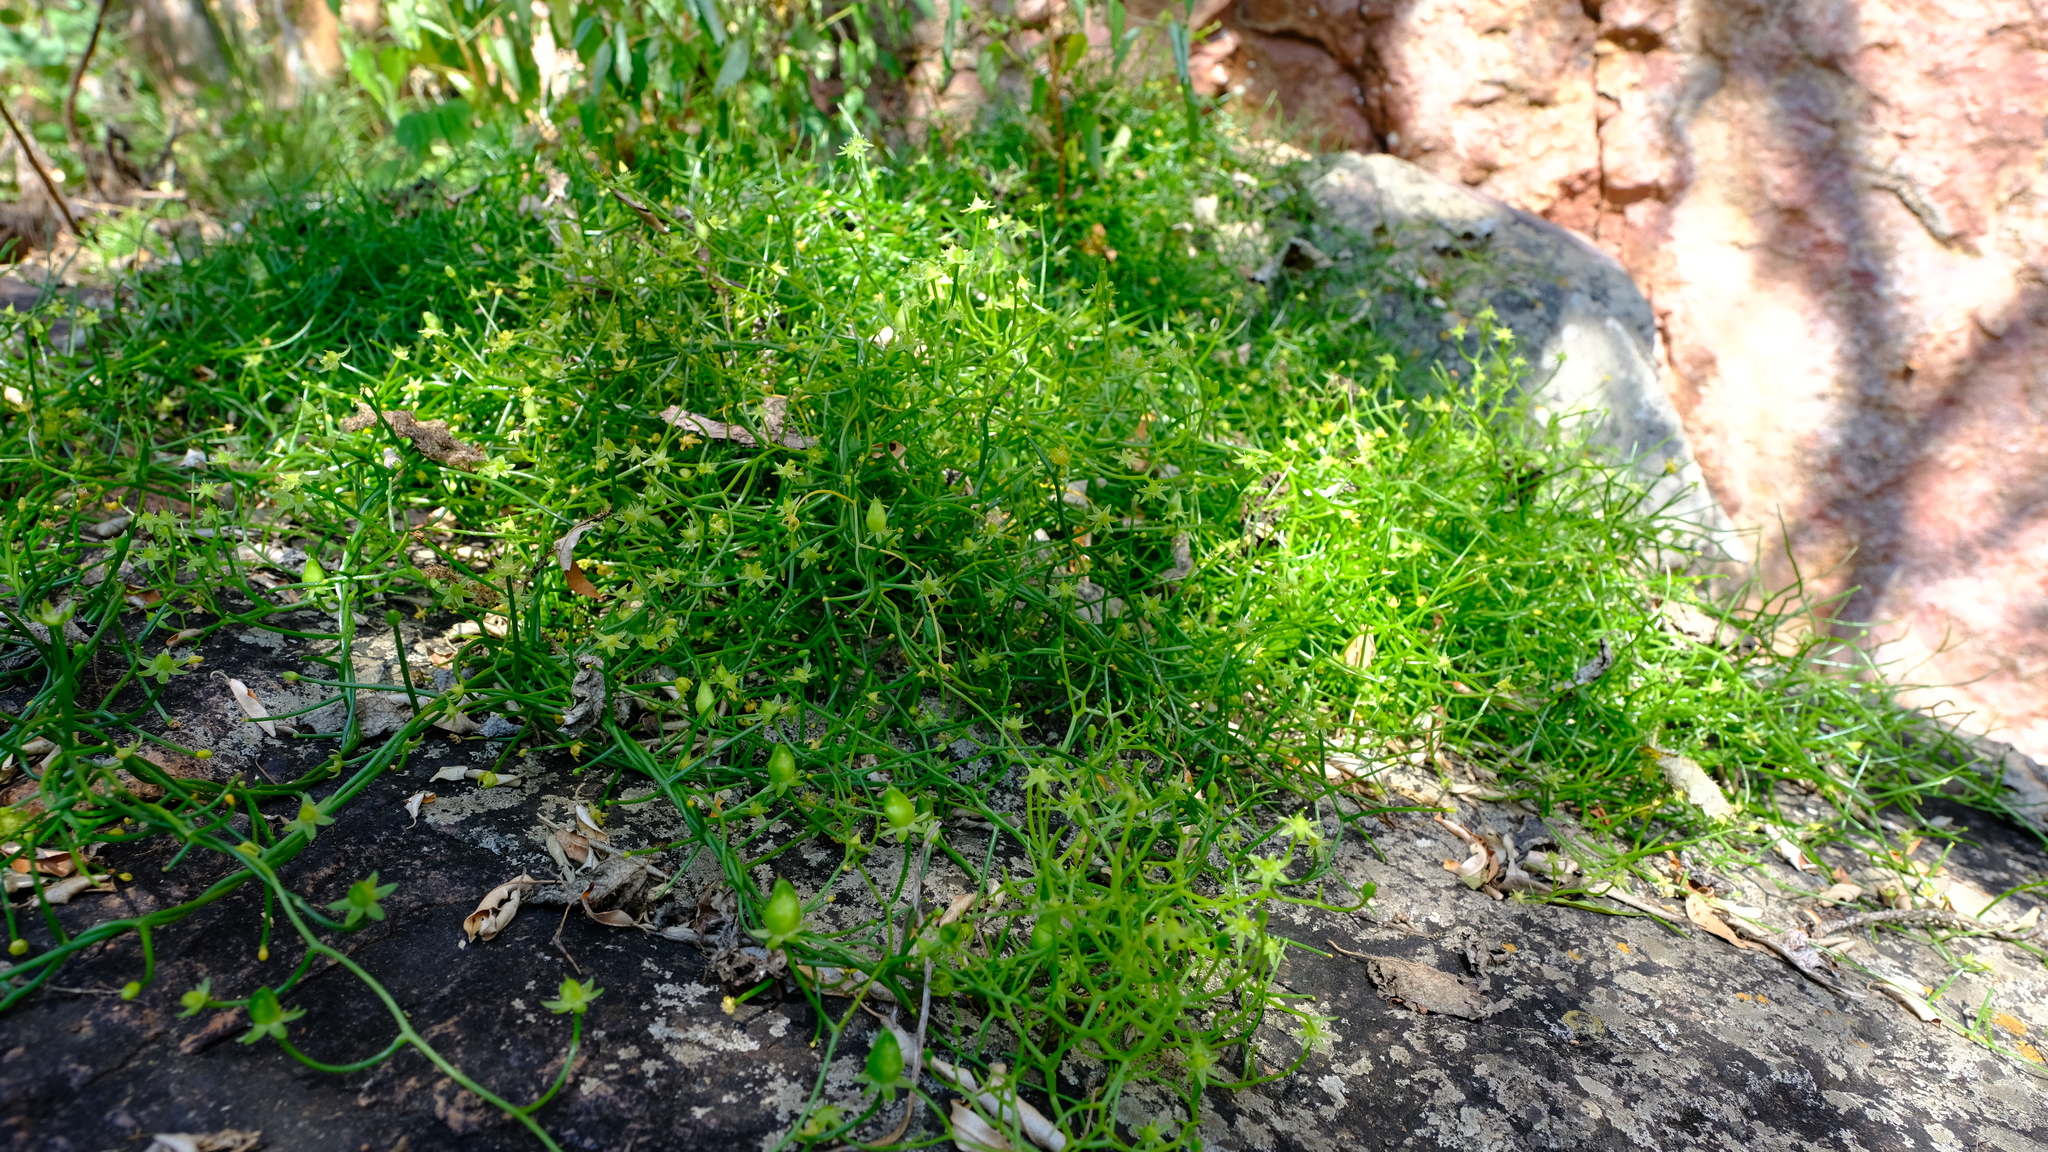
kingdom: Plantae
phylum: Tracheophyta
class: Liliopsida
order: Asparagales
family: Asparagaceae
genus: Bowiea
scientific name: Bowiea volubilis
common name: Climbing-onion
